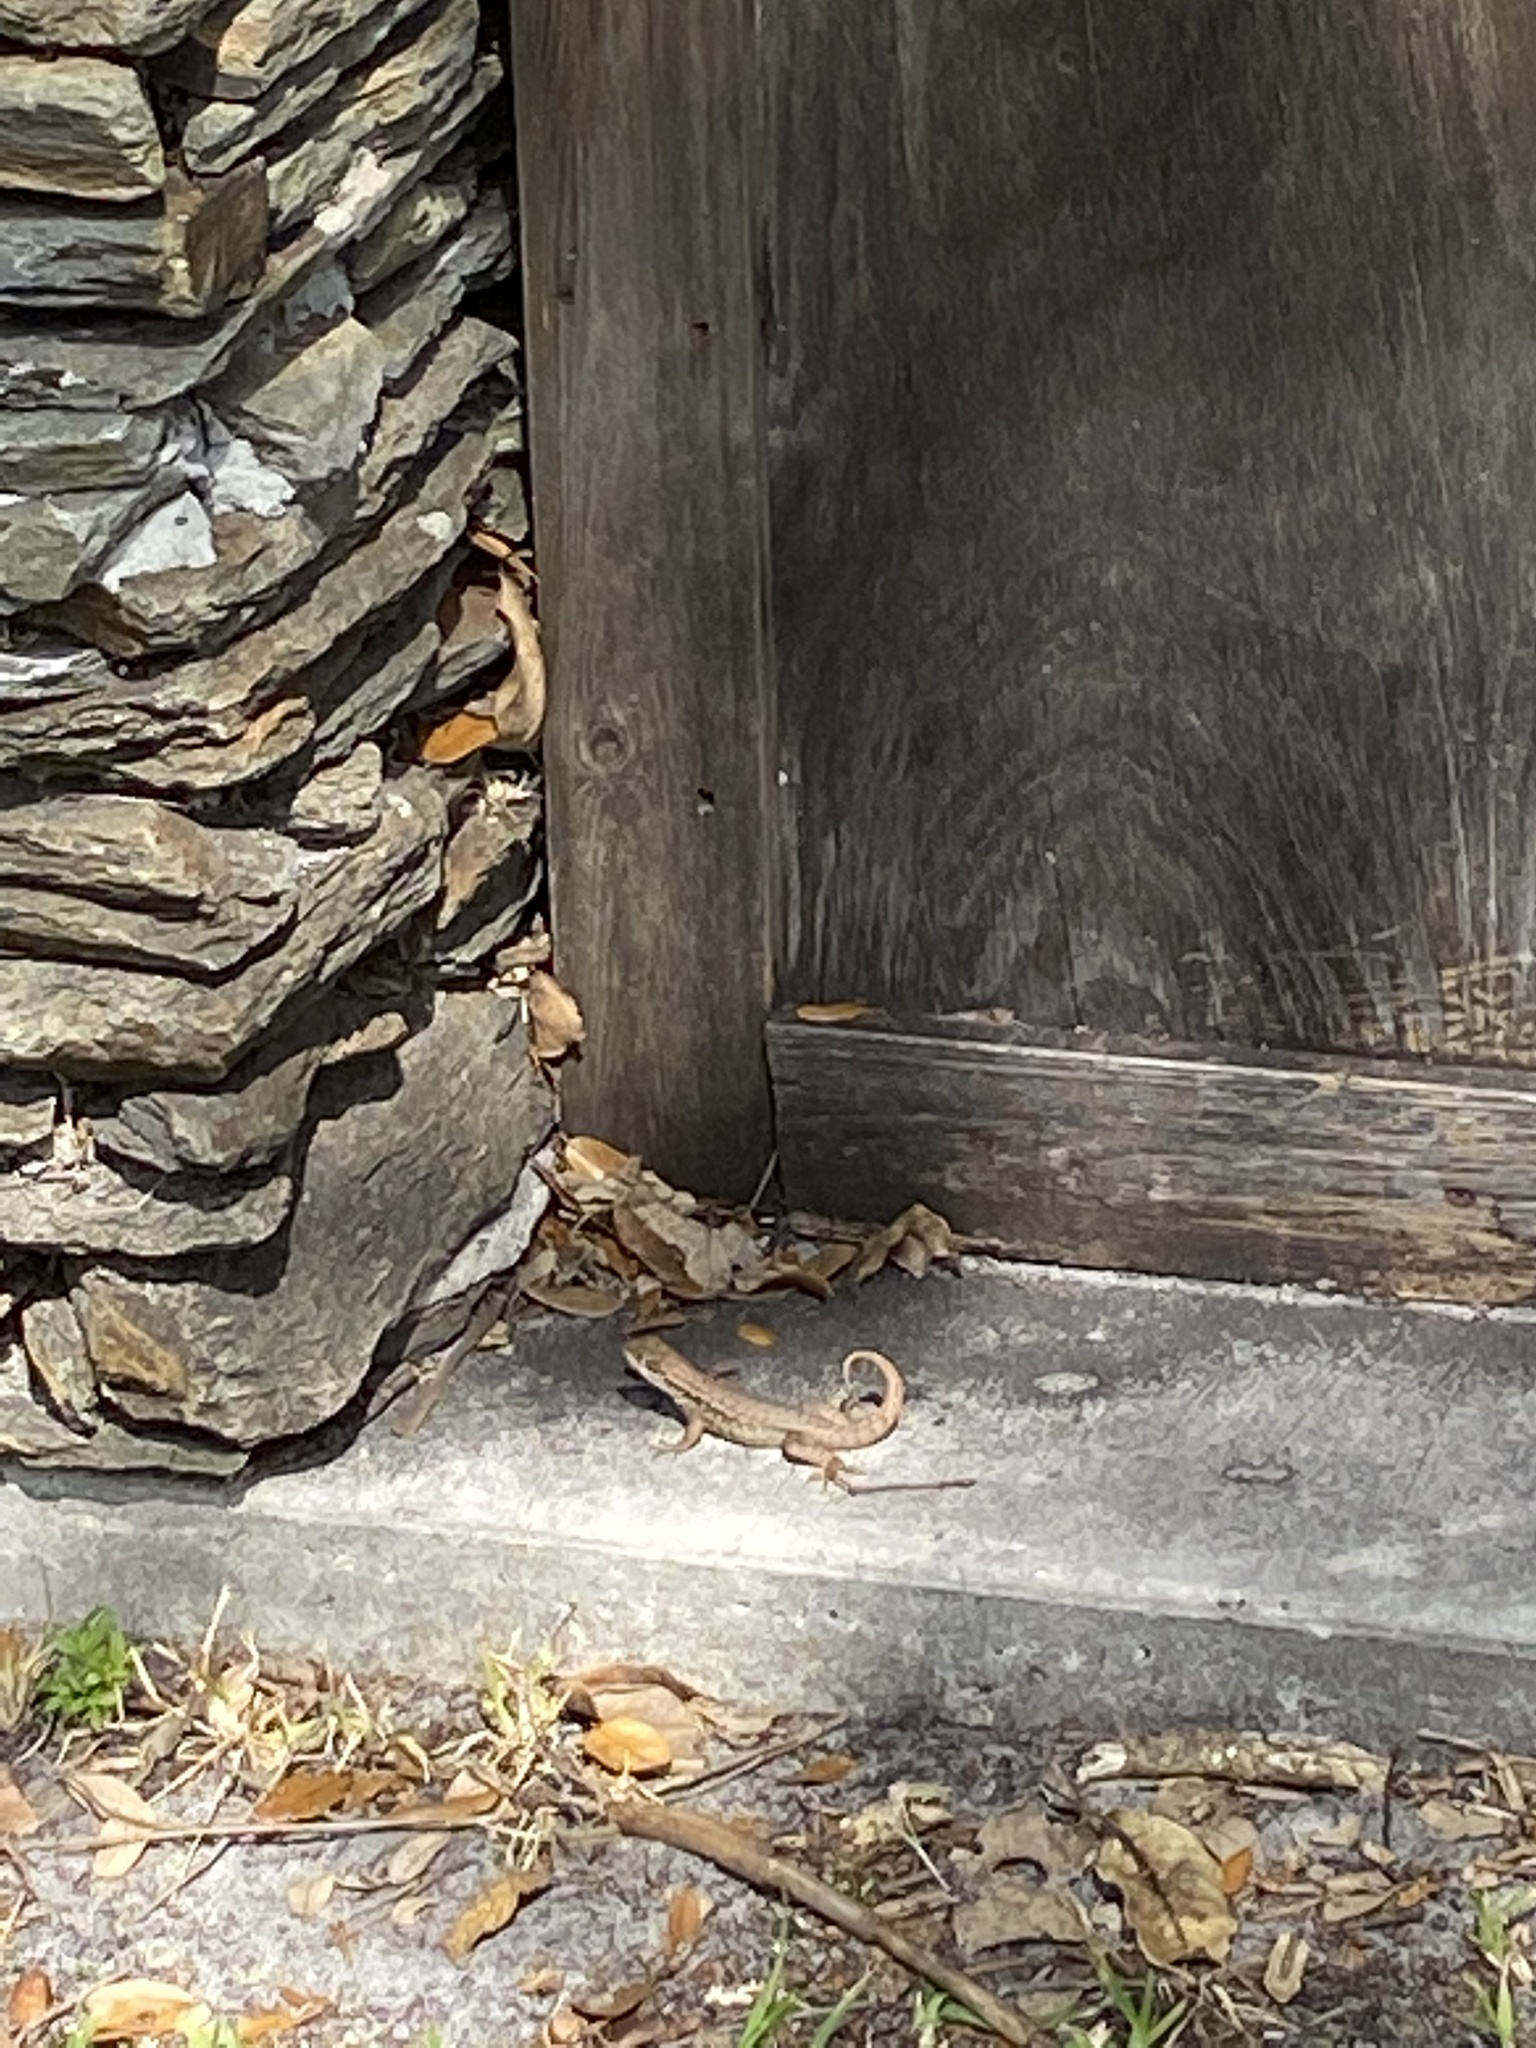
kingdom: Animalia
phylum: Chordata
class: Squamata
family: Leiocephalidae
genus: Leiocephalus
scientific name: Leiocephalus carinatus
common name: Northern curly-tailed lizard
